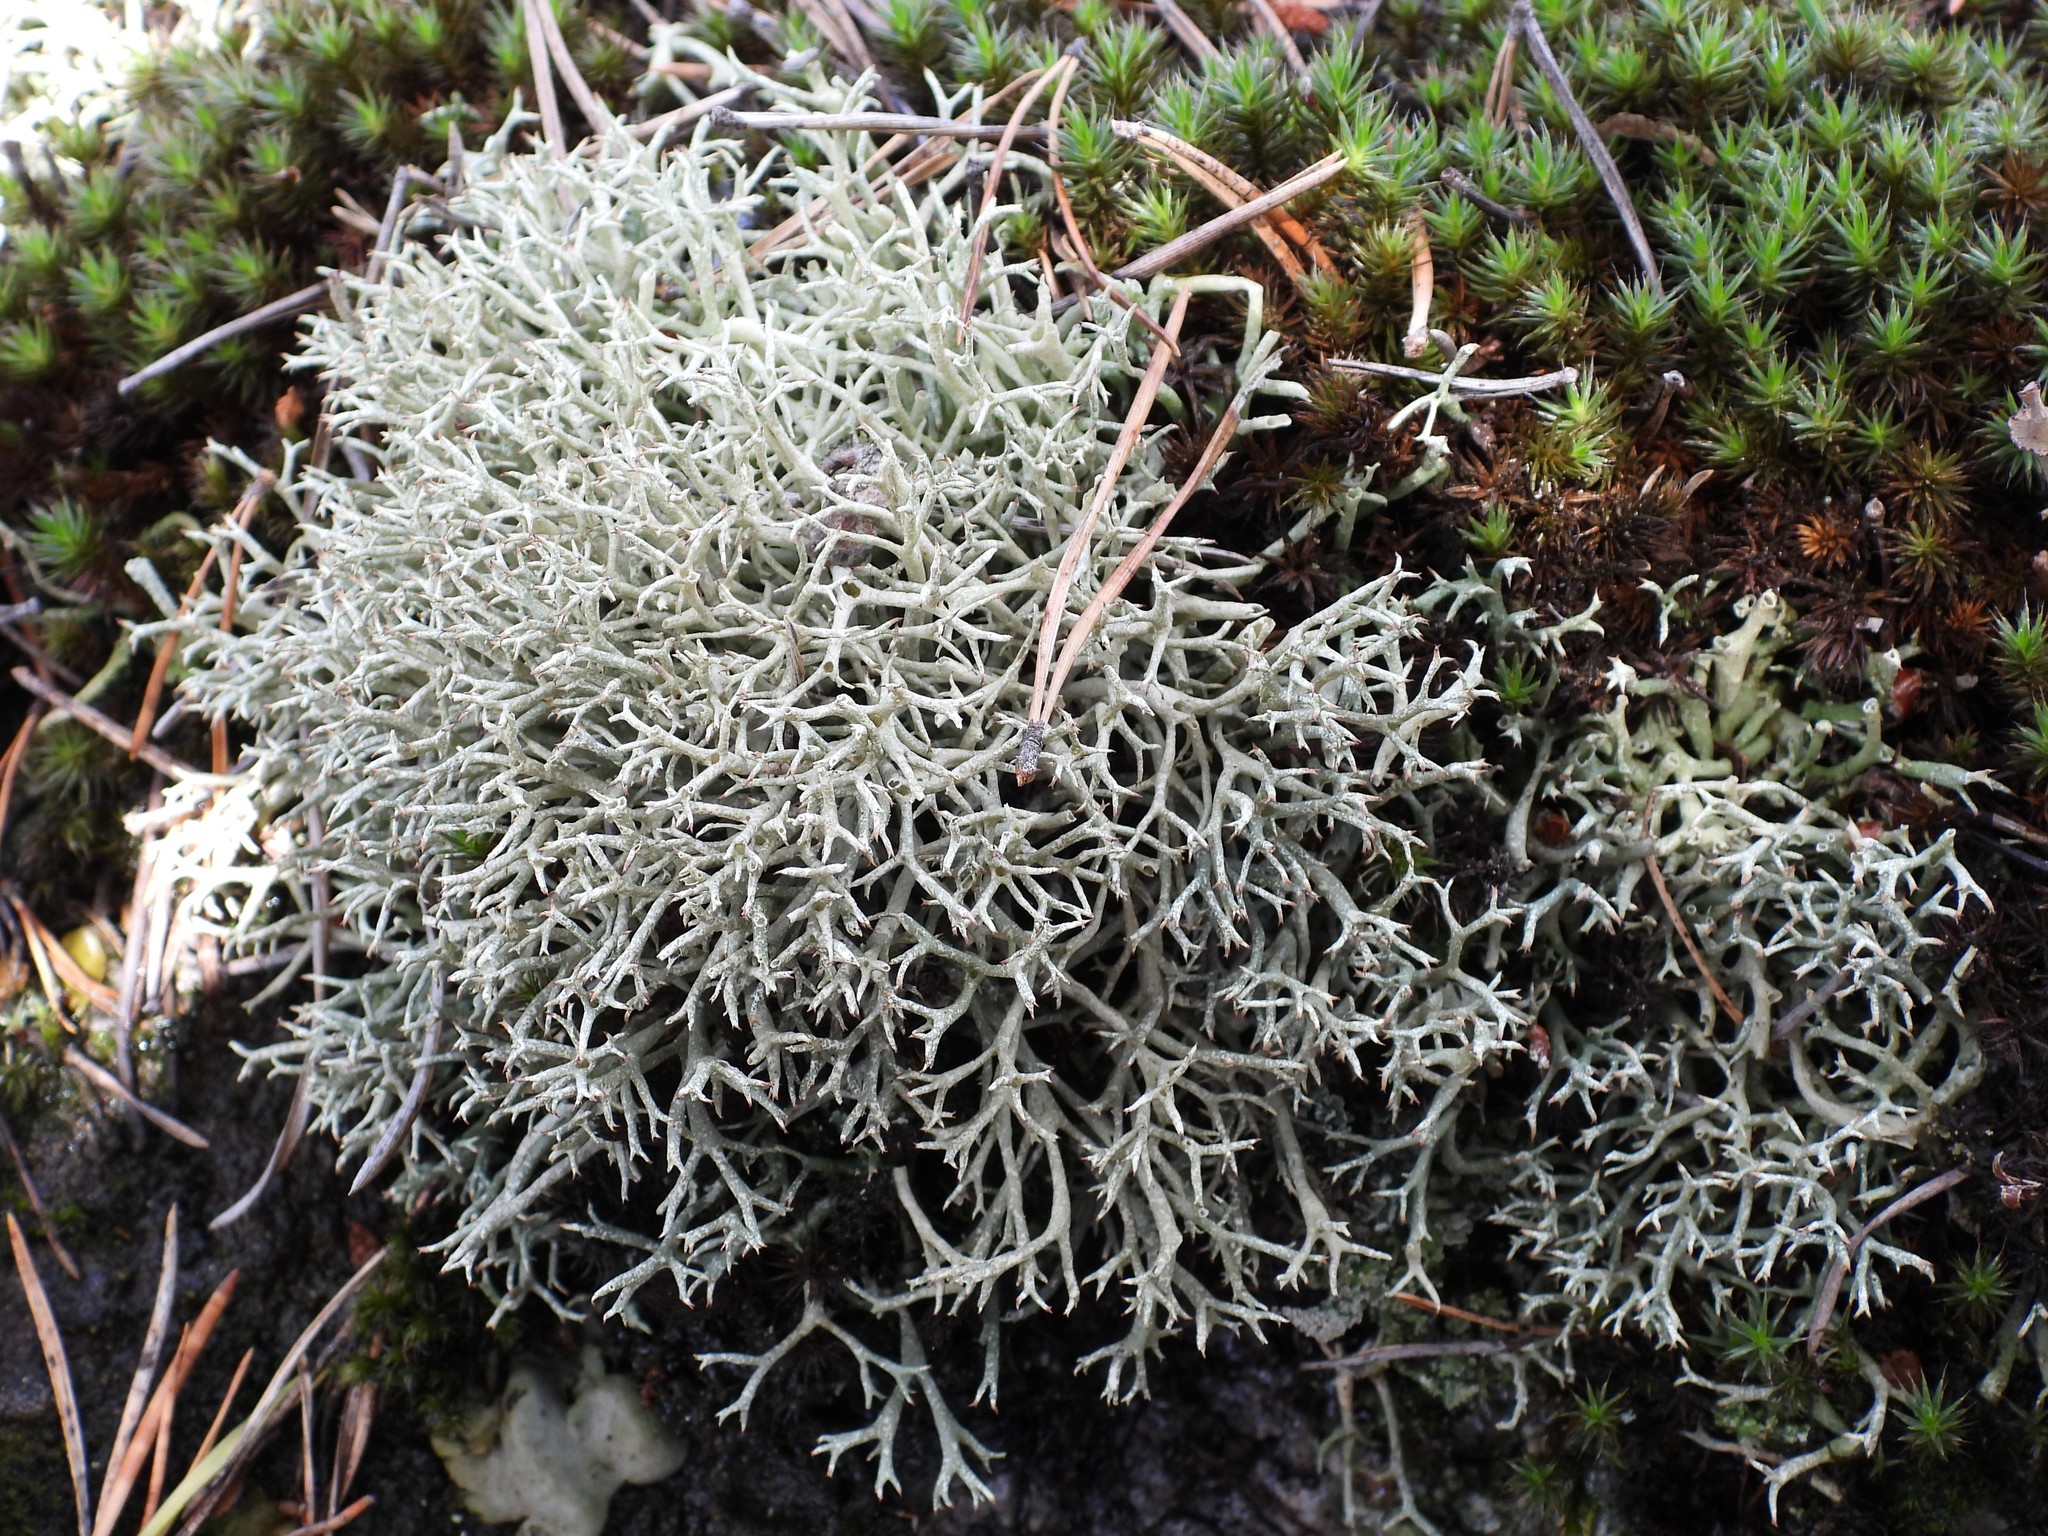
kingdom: Fungi
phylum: Ascomycota
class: Lecanoromycetes
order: Lecanorales
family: Cladoniaceae
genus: Cladonia
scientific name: Cladonia uncialis
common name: Thorn lichen
